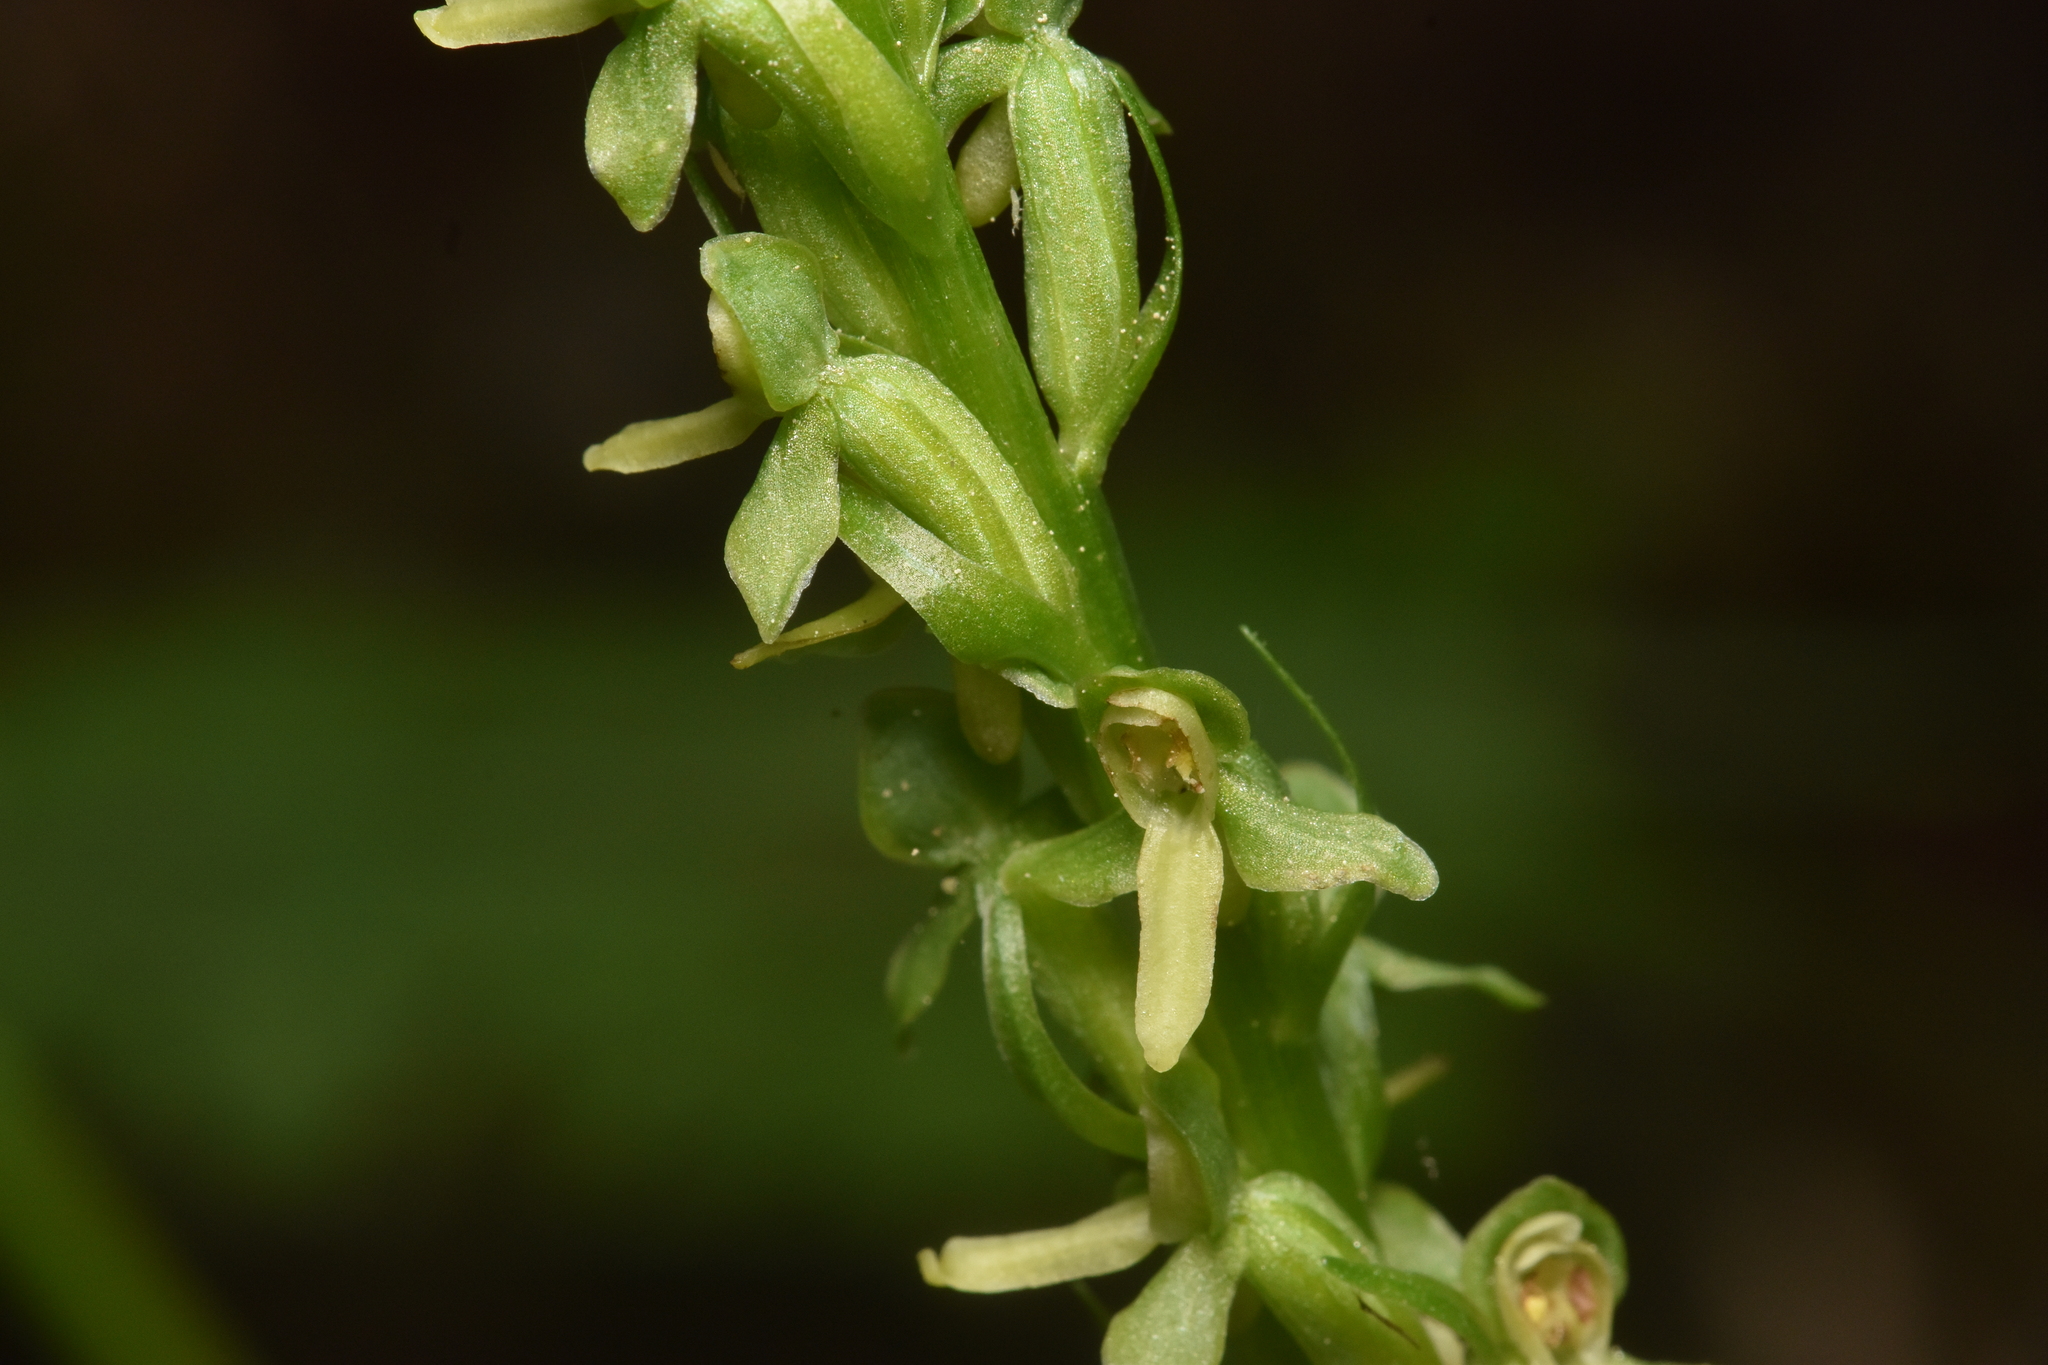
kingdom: Plantae
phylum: Tracheophyta
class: Liliopsida
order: Asparagales
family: Orchidaceae
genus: Platanthera
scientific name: Platanthera stricta
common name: Slender bog orchid
